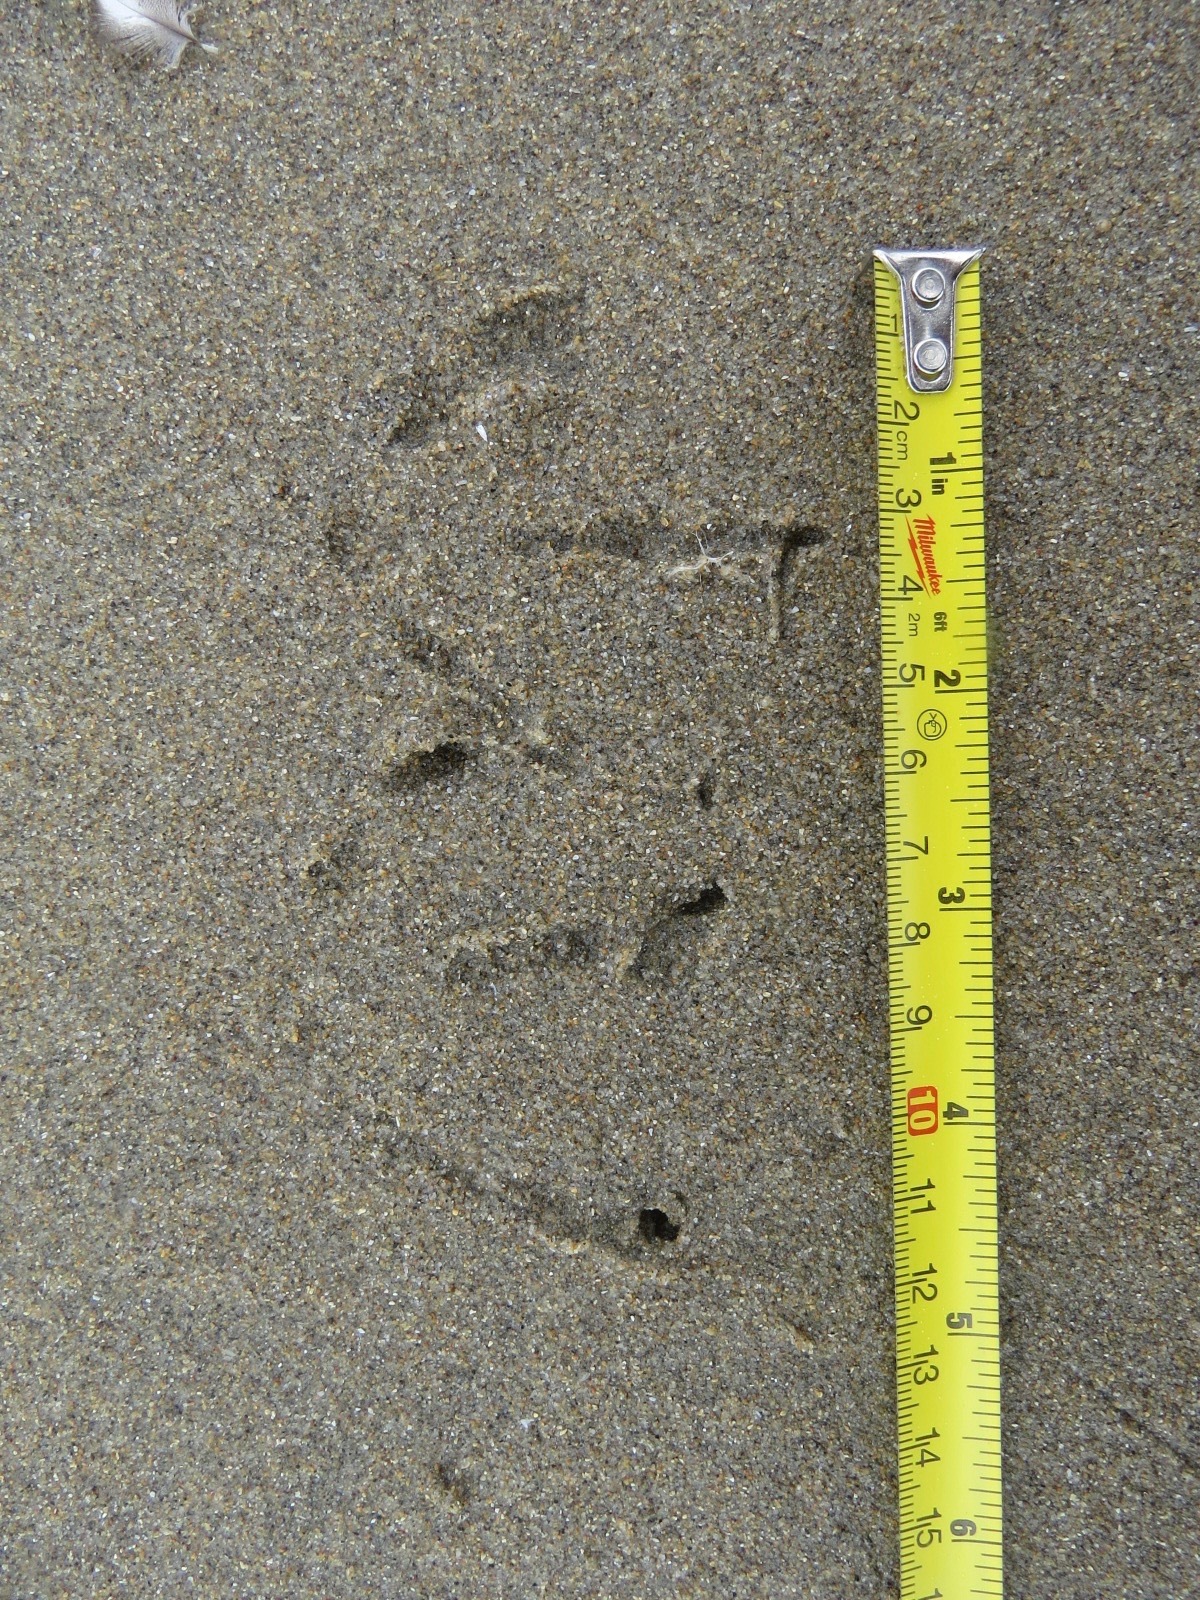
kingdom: Animalia
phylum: Chordata
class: Aves
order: Charadriiformes
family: Laridae
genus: Larus
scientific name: Larus heermanni
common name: Heermann's gull
